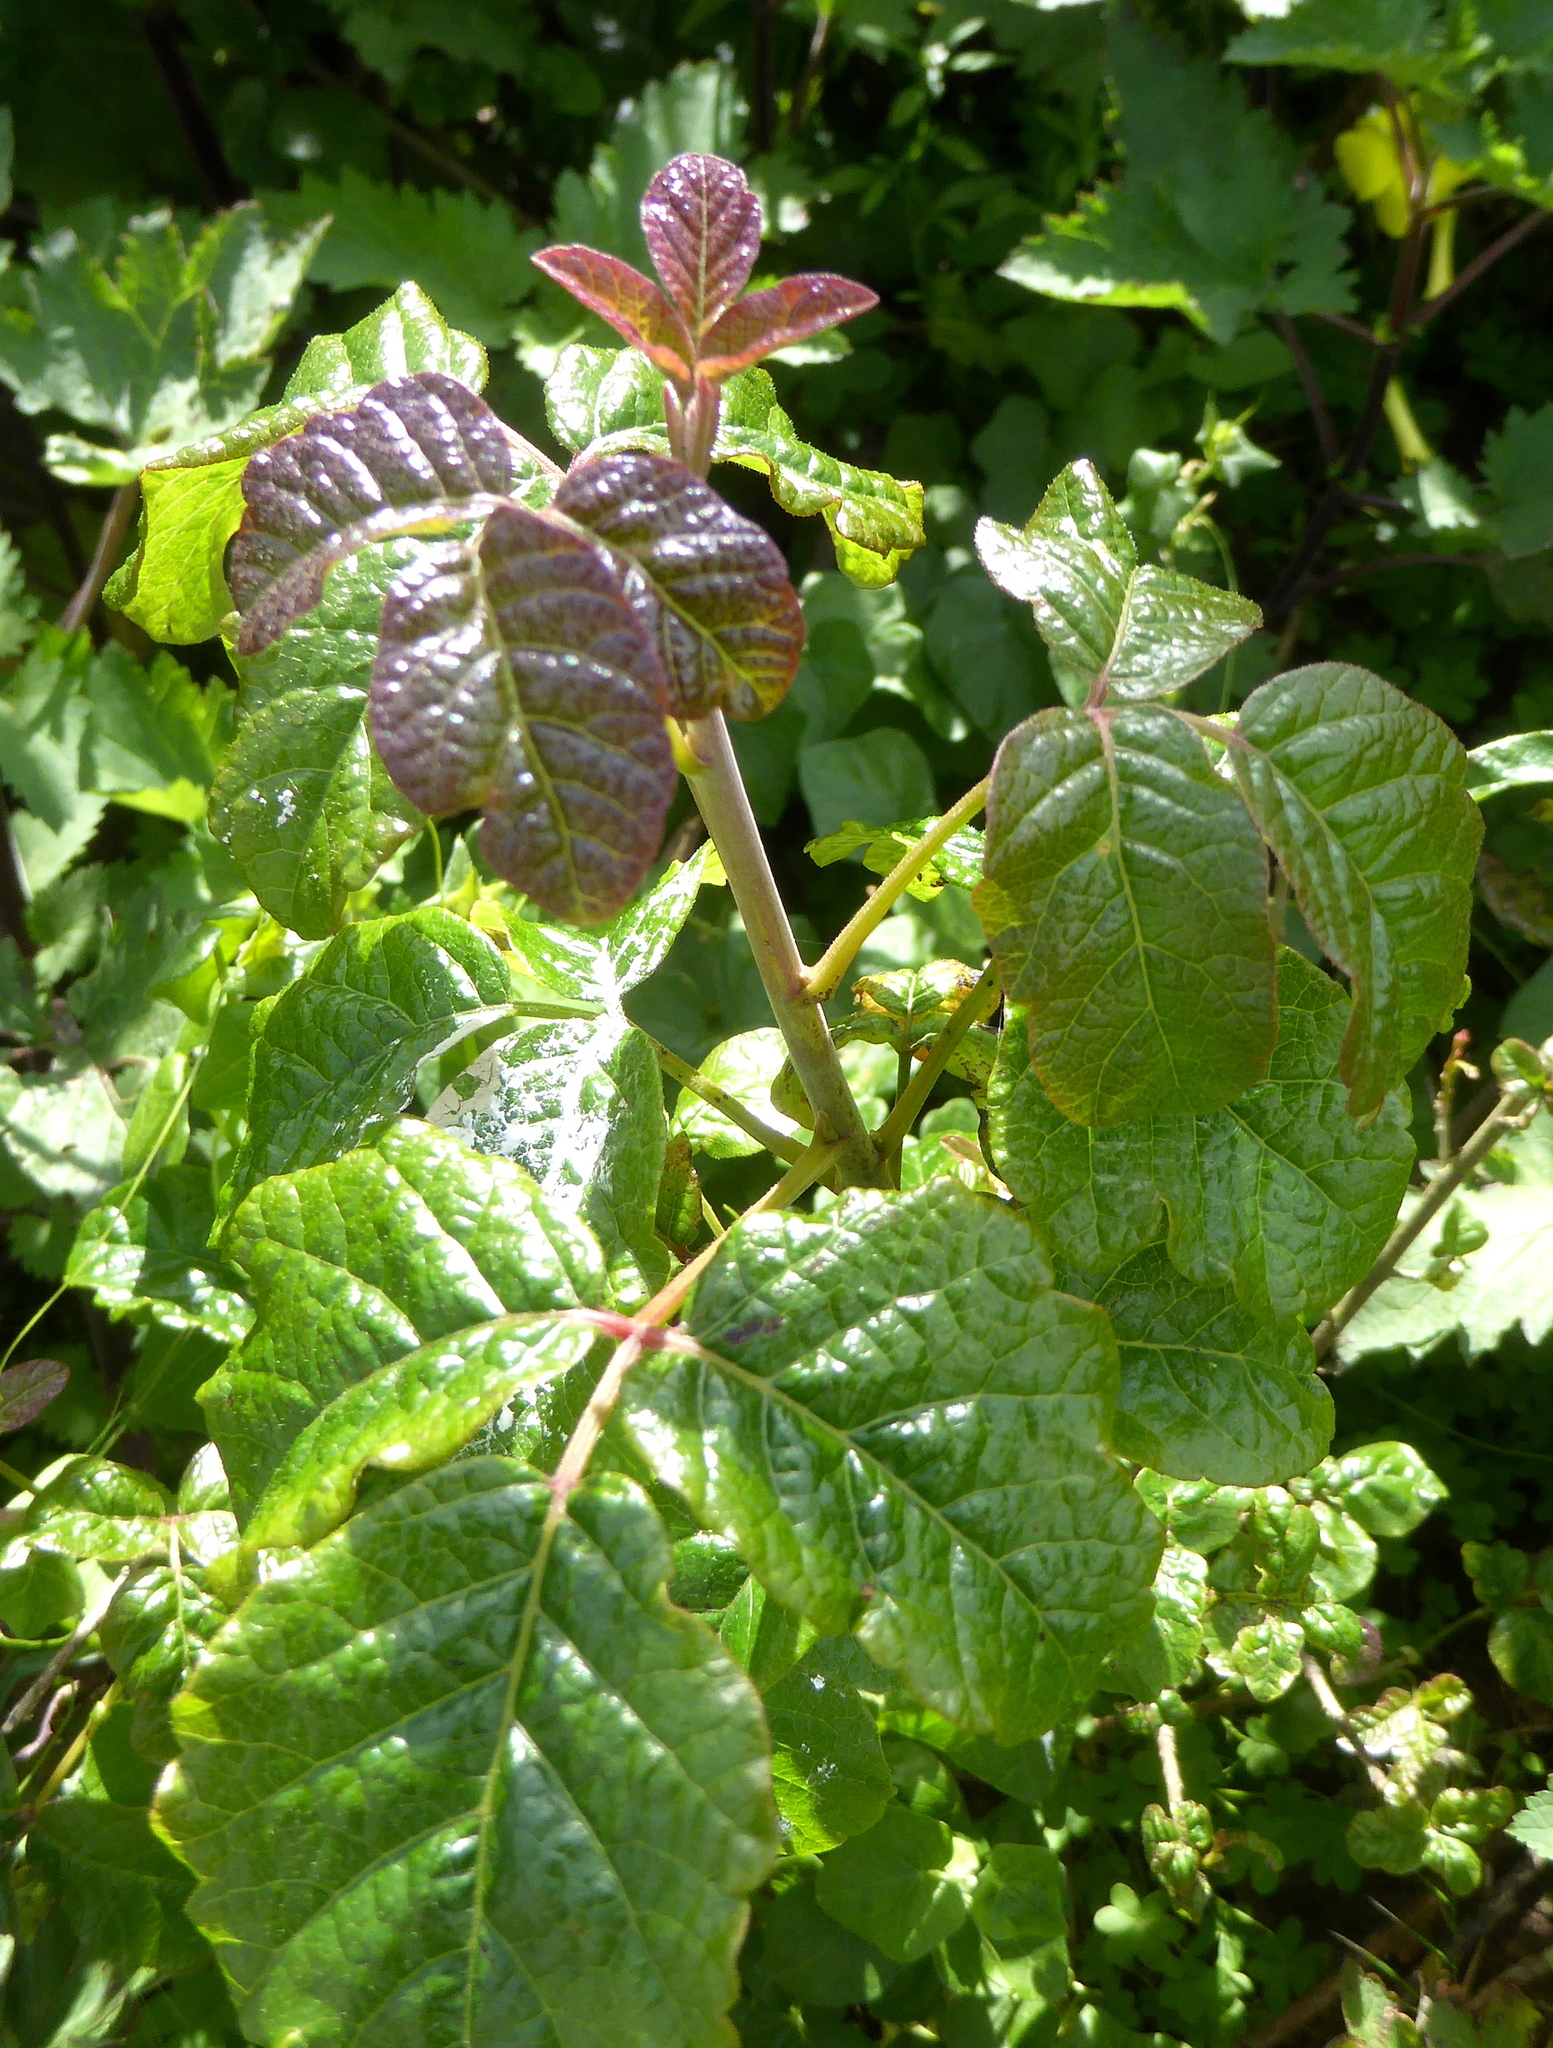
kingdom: Plantae
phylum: Tracheophyta
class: Magnoliopsida
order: Sapindales
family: Anacardiaceae
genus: Toxicodendron
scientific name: Toxicodendron diversilobum
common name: Pacific poison-oak
